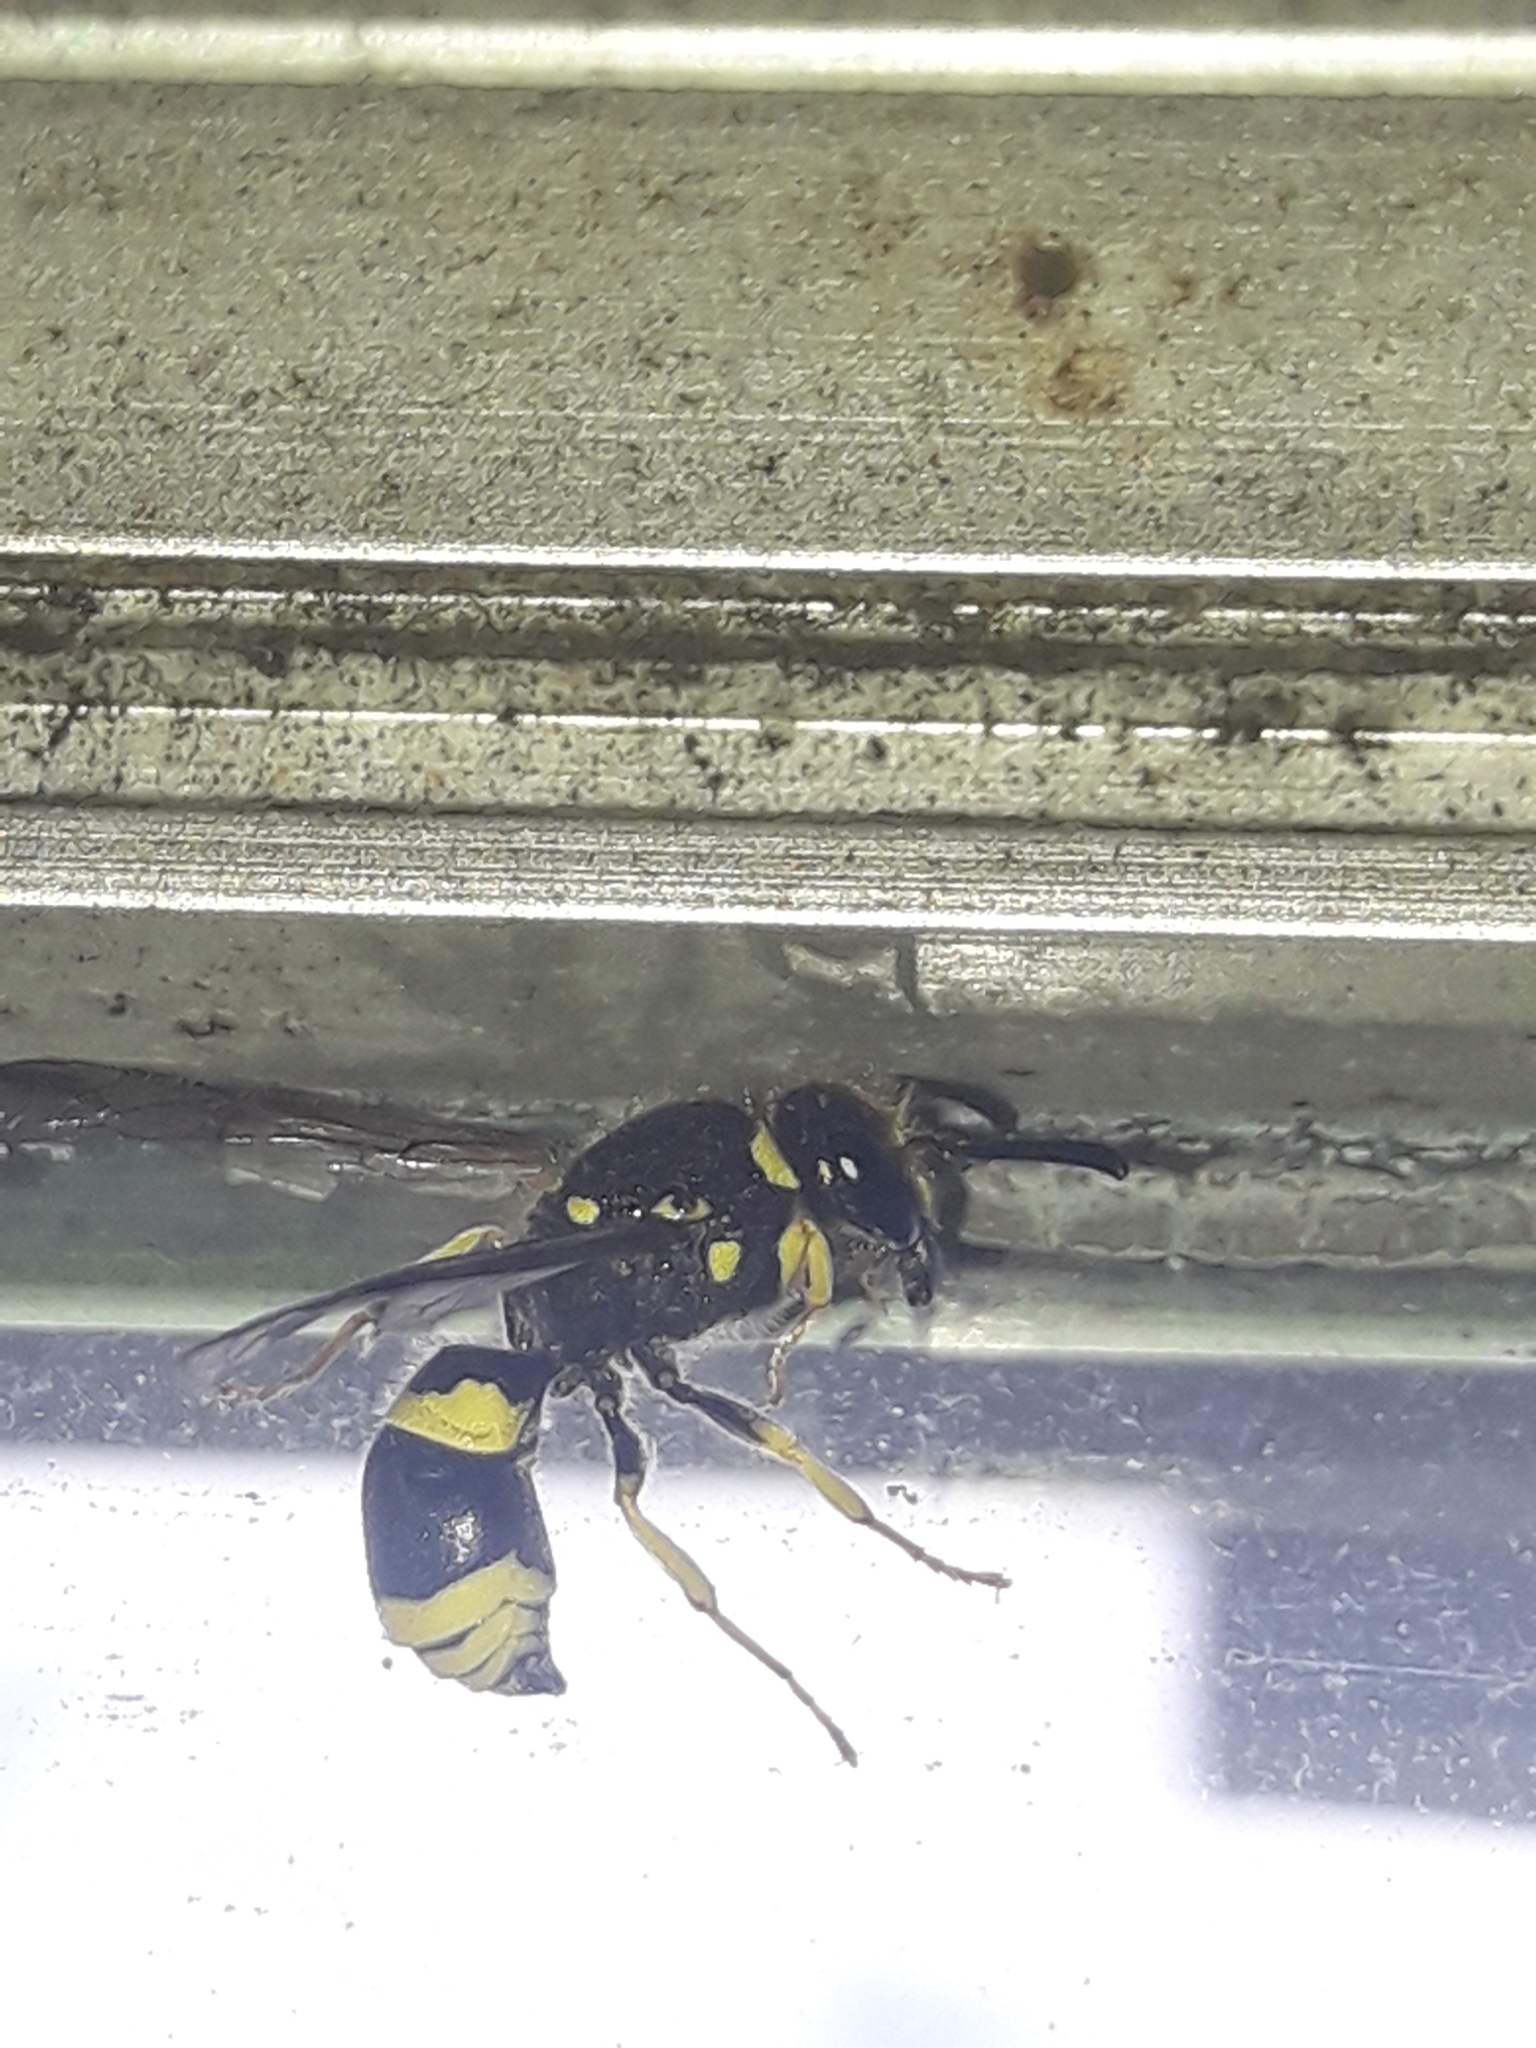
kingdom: Animalia
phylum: Arthropoda
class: Insecta
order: Hymenoptera
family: Vespidae
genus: Ancistrocerus
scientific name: Ancistrocerus gazella
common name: European tube wasp
